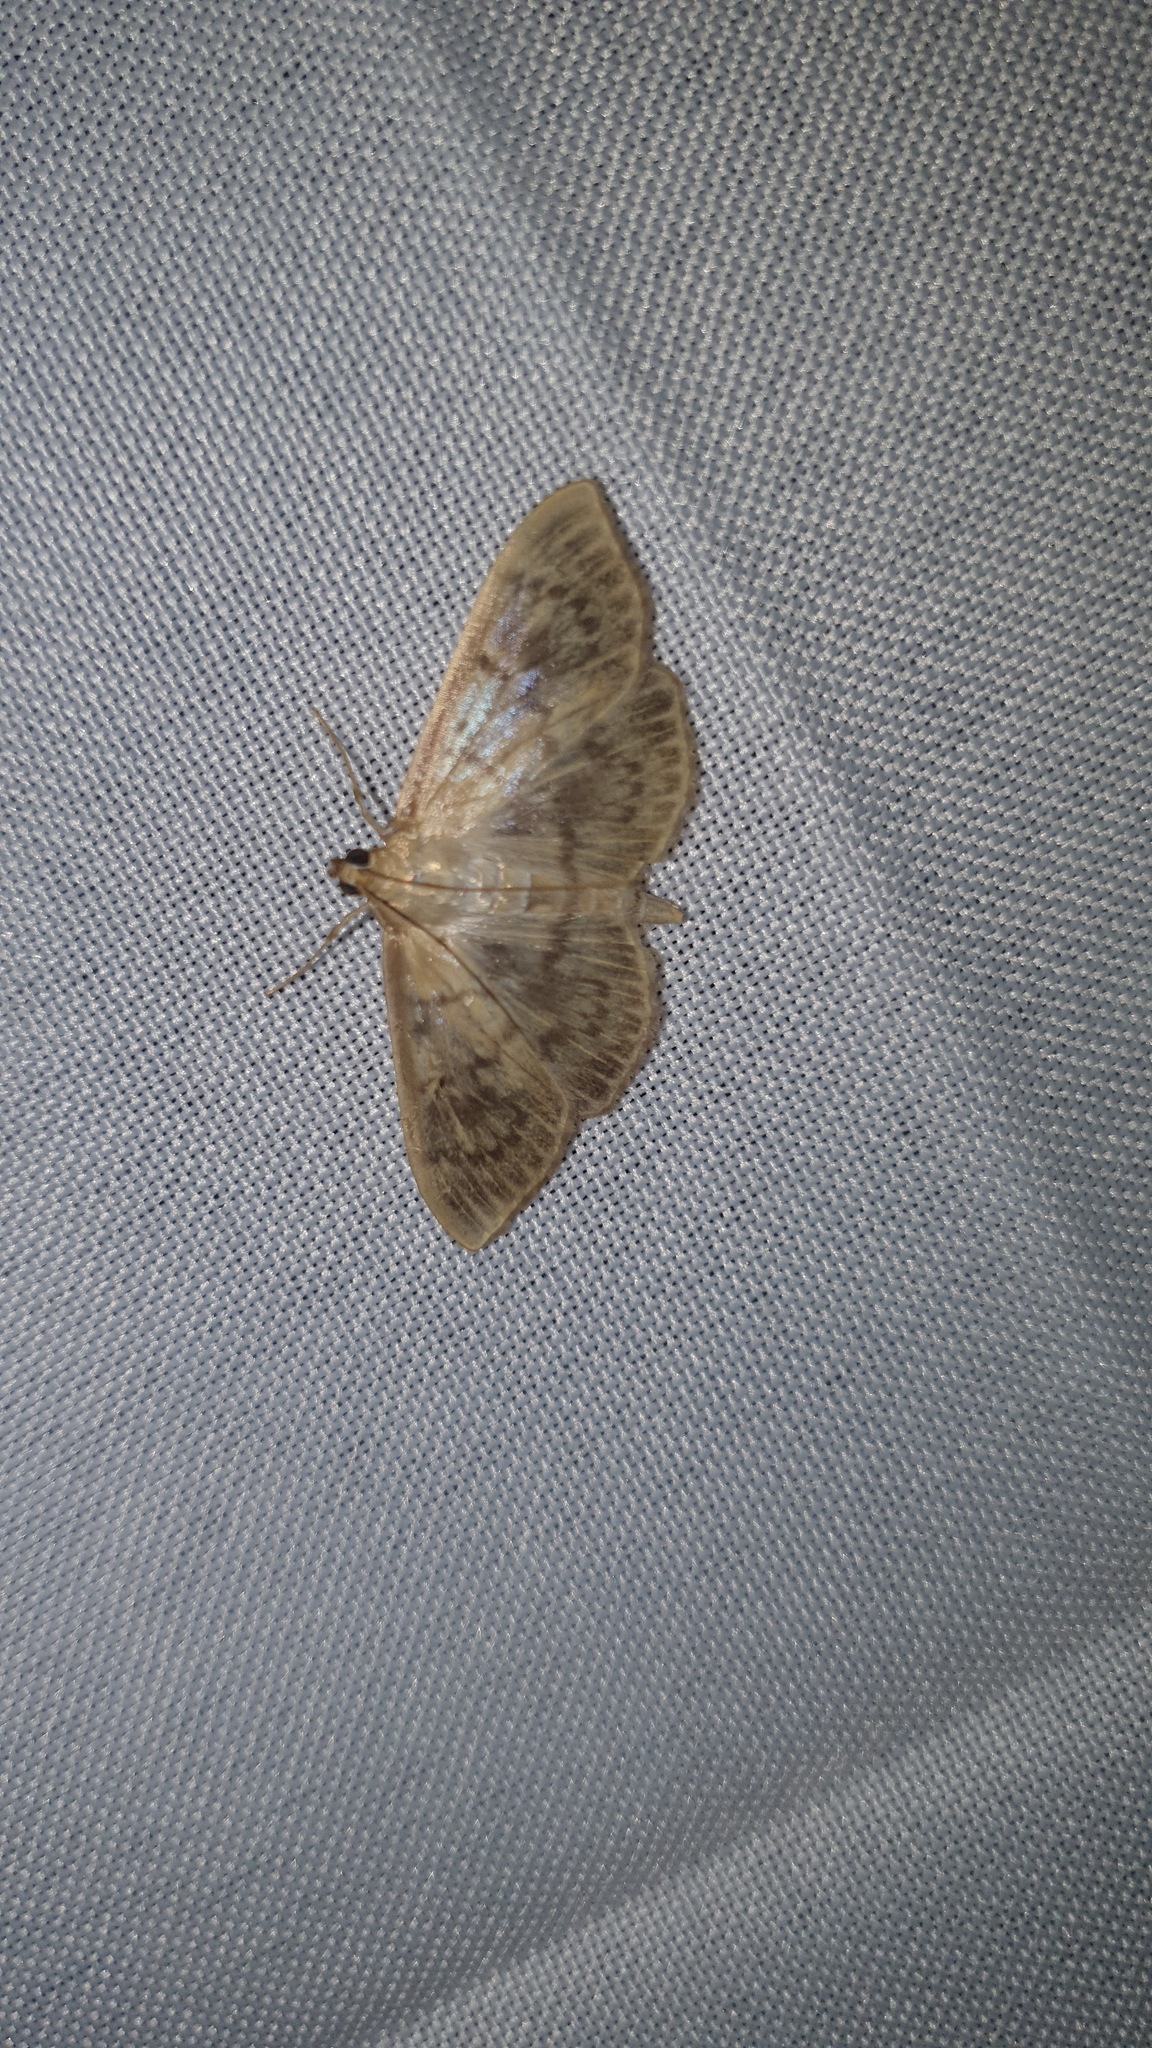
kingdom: Animalia
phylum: Arthropoda
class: Insecta
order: Lepidoptera
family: Crambidae
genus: Patania
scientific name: Patania ruralis
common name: Mother of pearl
